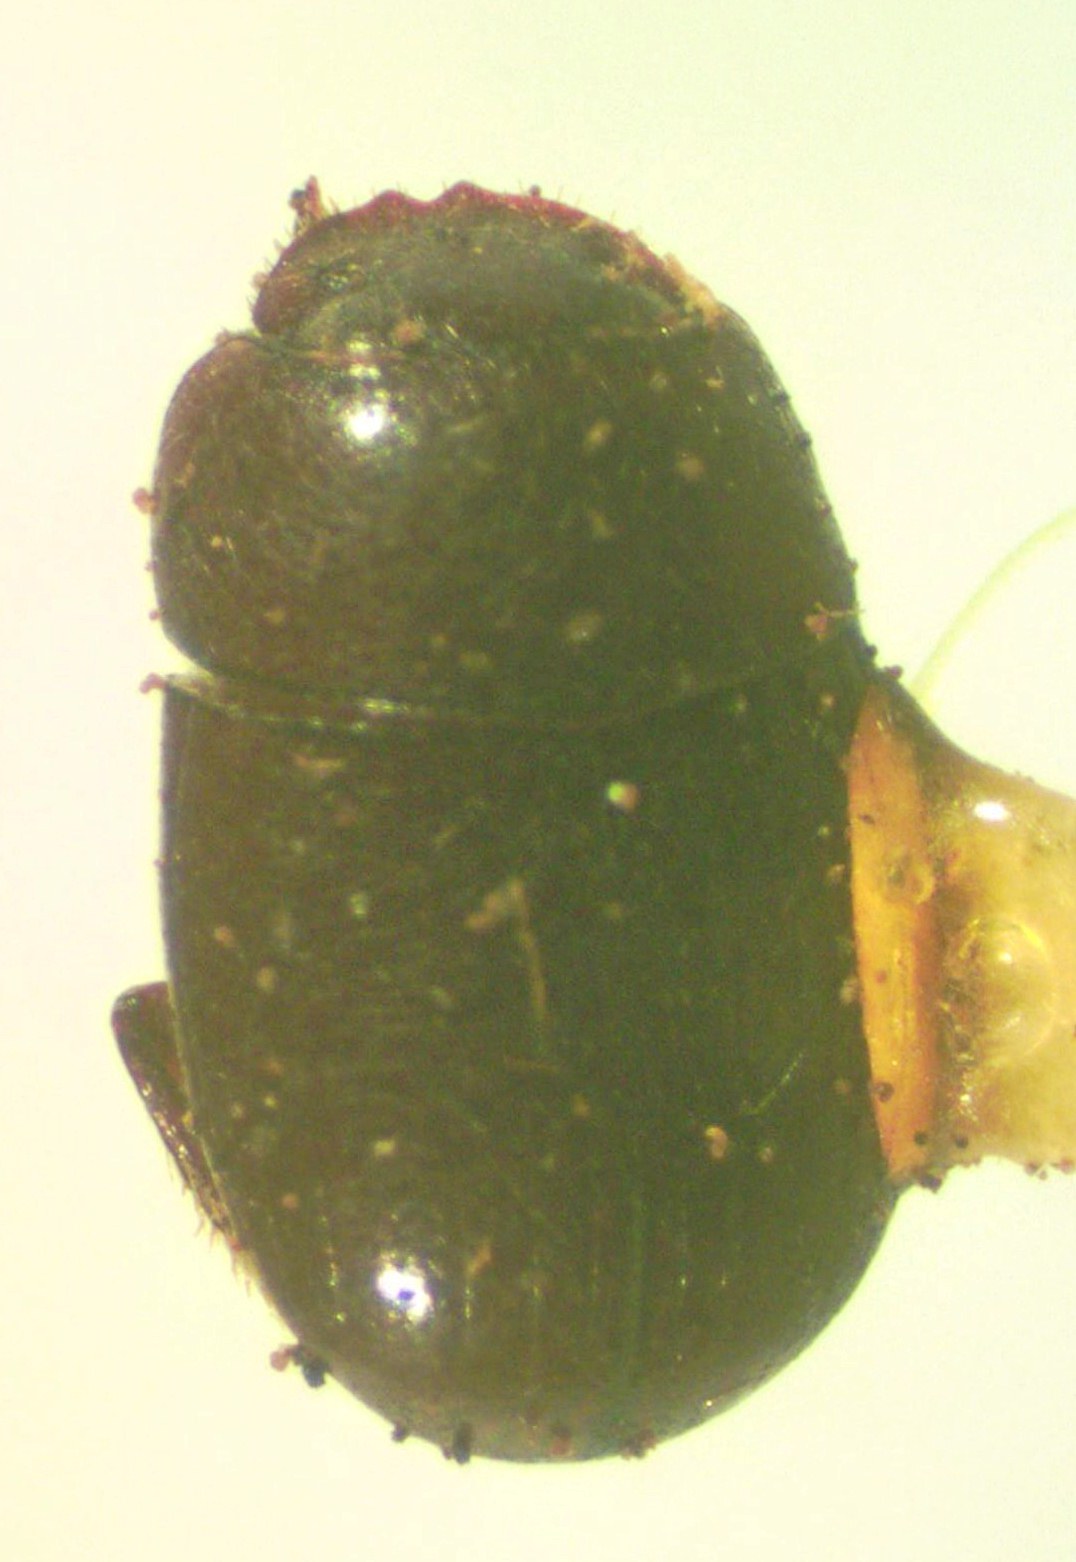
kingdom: Animalia
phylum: Arthropoda
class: Insecta
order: Coleoptera
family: Scarabaeidae
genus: Agamopus
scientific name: Agamopus lampros
